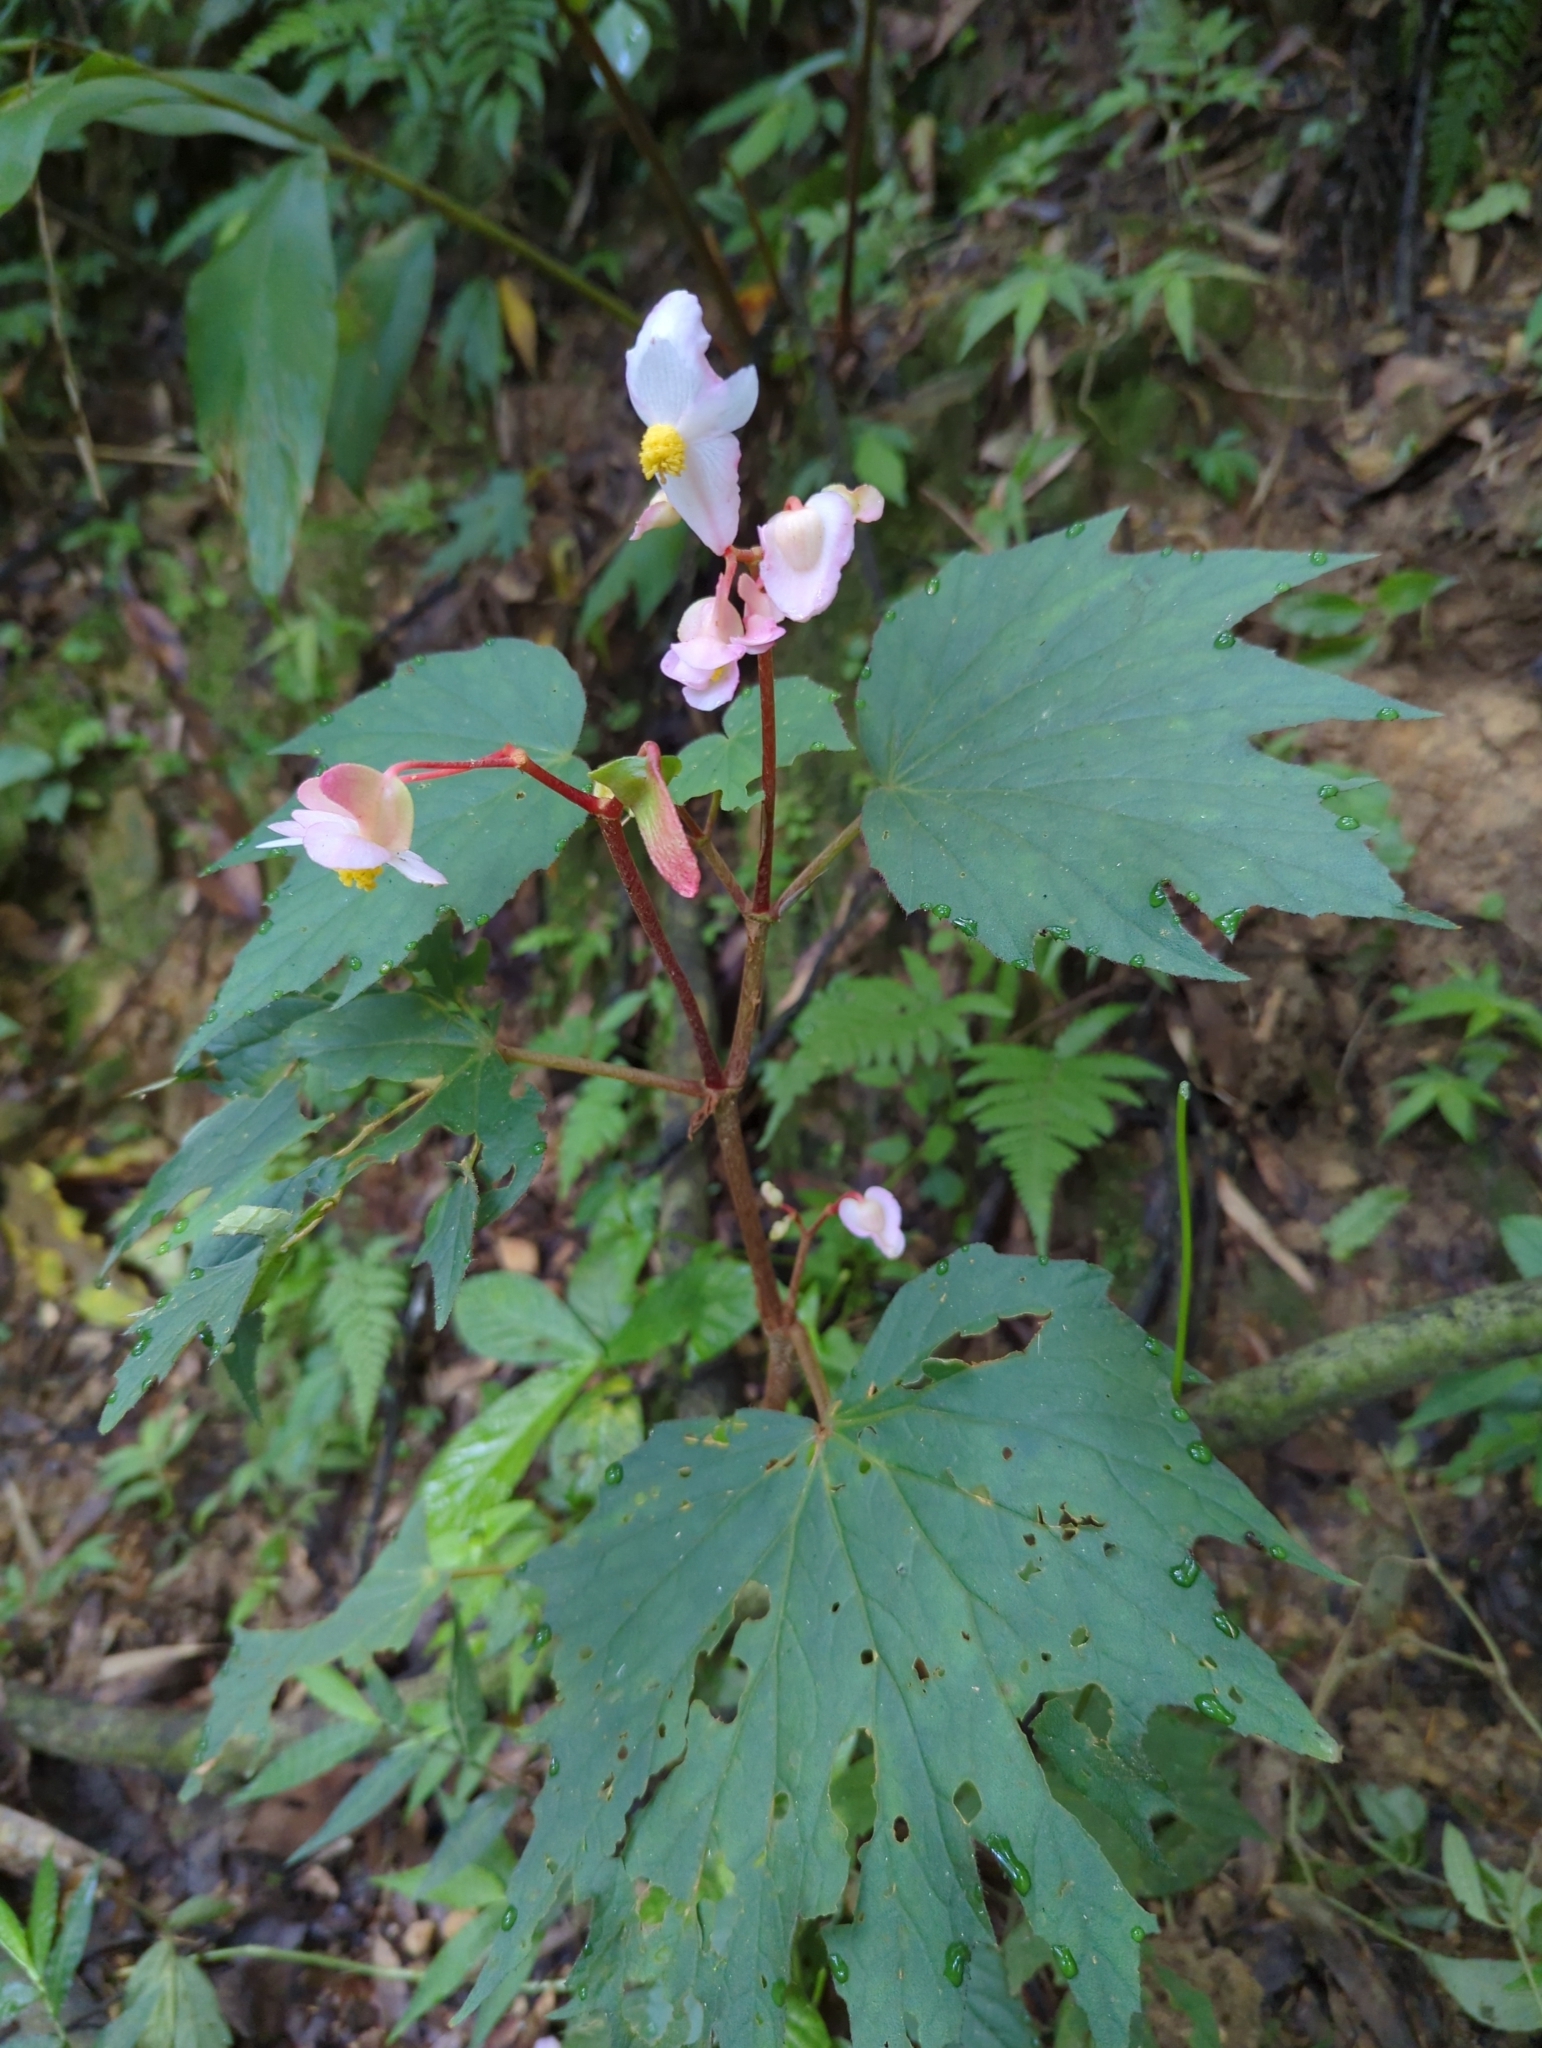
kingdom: Plantae
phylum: Tracheophyta
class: Magnoliopsida
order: Cucurbitales
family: Begoniaceae
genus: Begonia
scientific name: Begonia palmata
